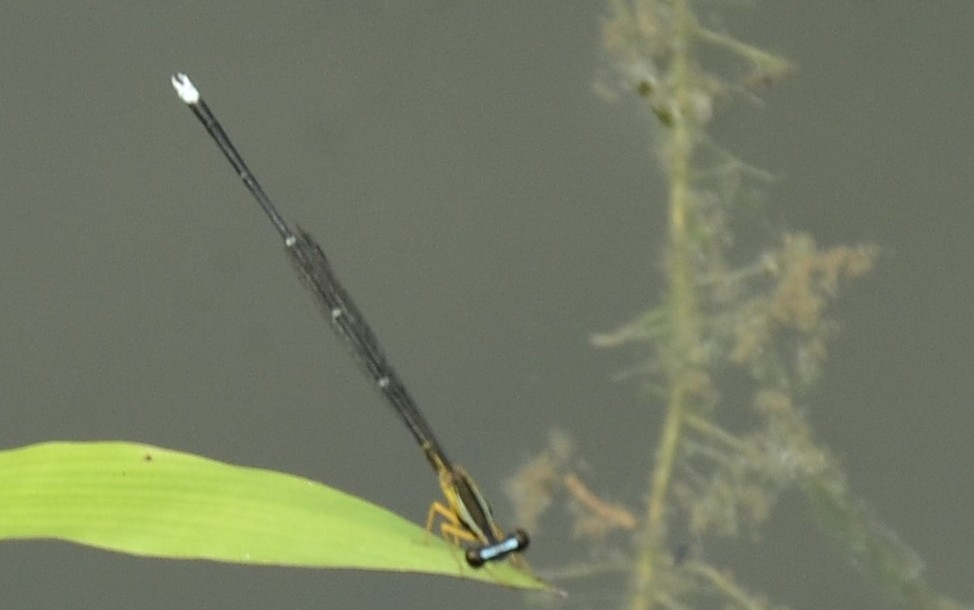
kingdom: Animalia
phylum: Arthropoda
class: Insecta
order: Odonata
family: Platycnemididae
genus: Copera
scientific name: Copera vittata
